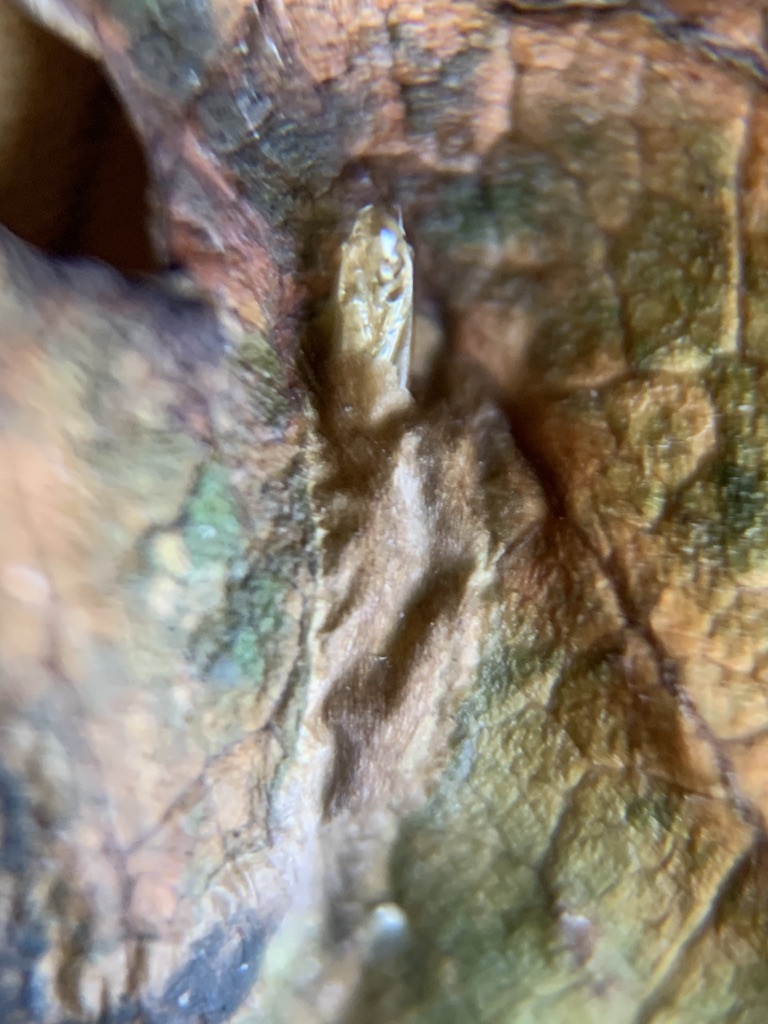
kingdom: Animalia
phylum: Arthropoda
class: Insecta
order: Lepidoptera
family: Gracillariidae
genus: Phyllocnistis
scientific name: Phyllocnistis vitifoliella
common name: Grape leaf-miner moth
